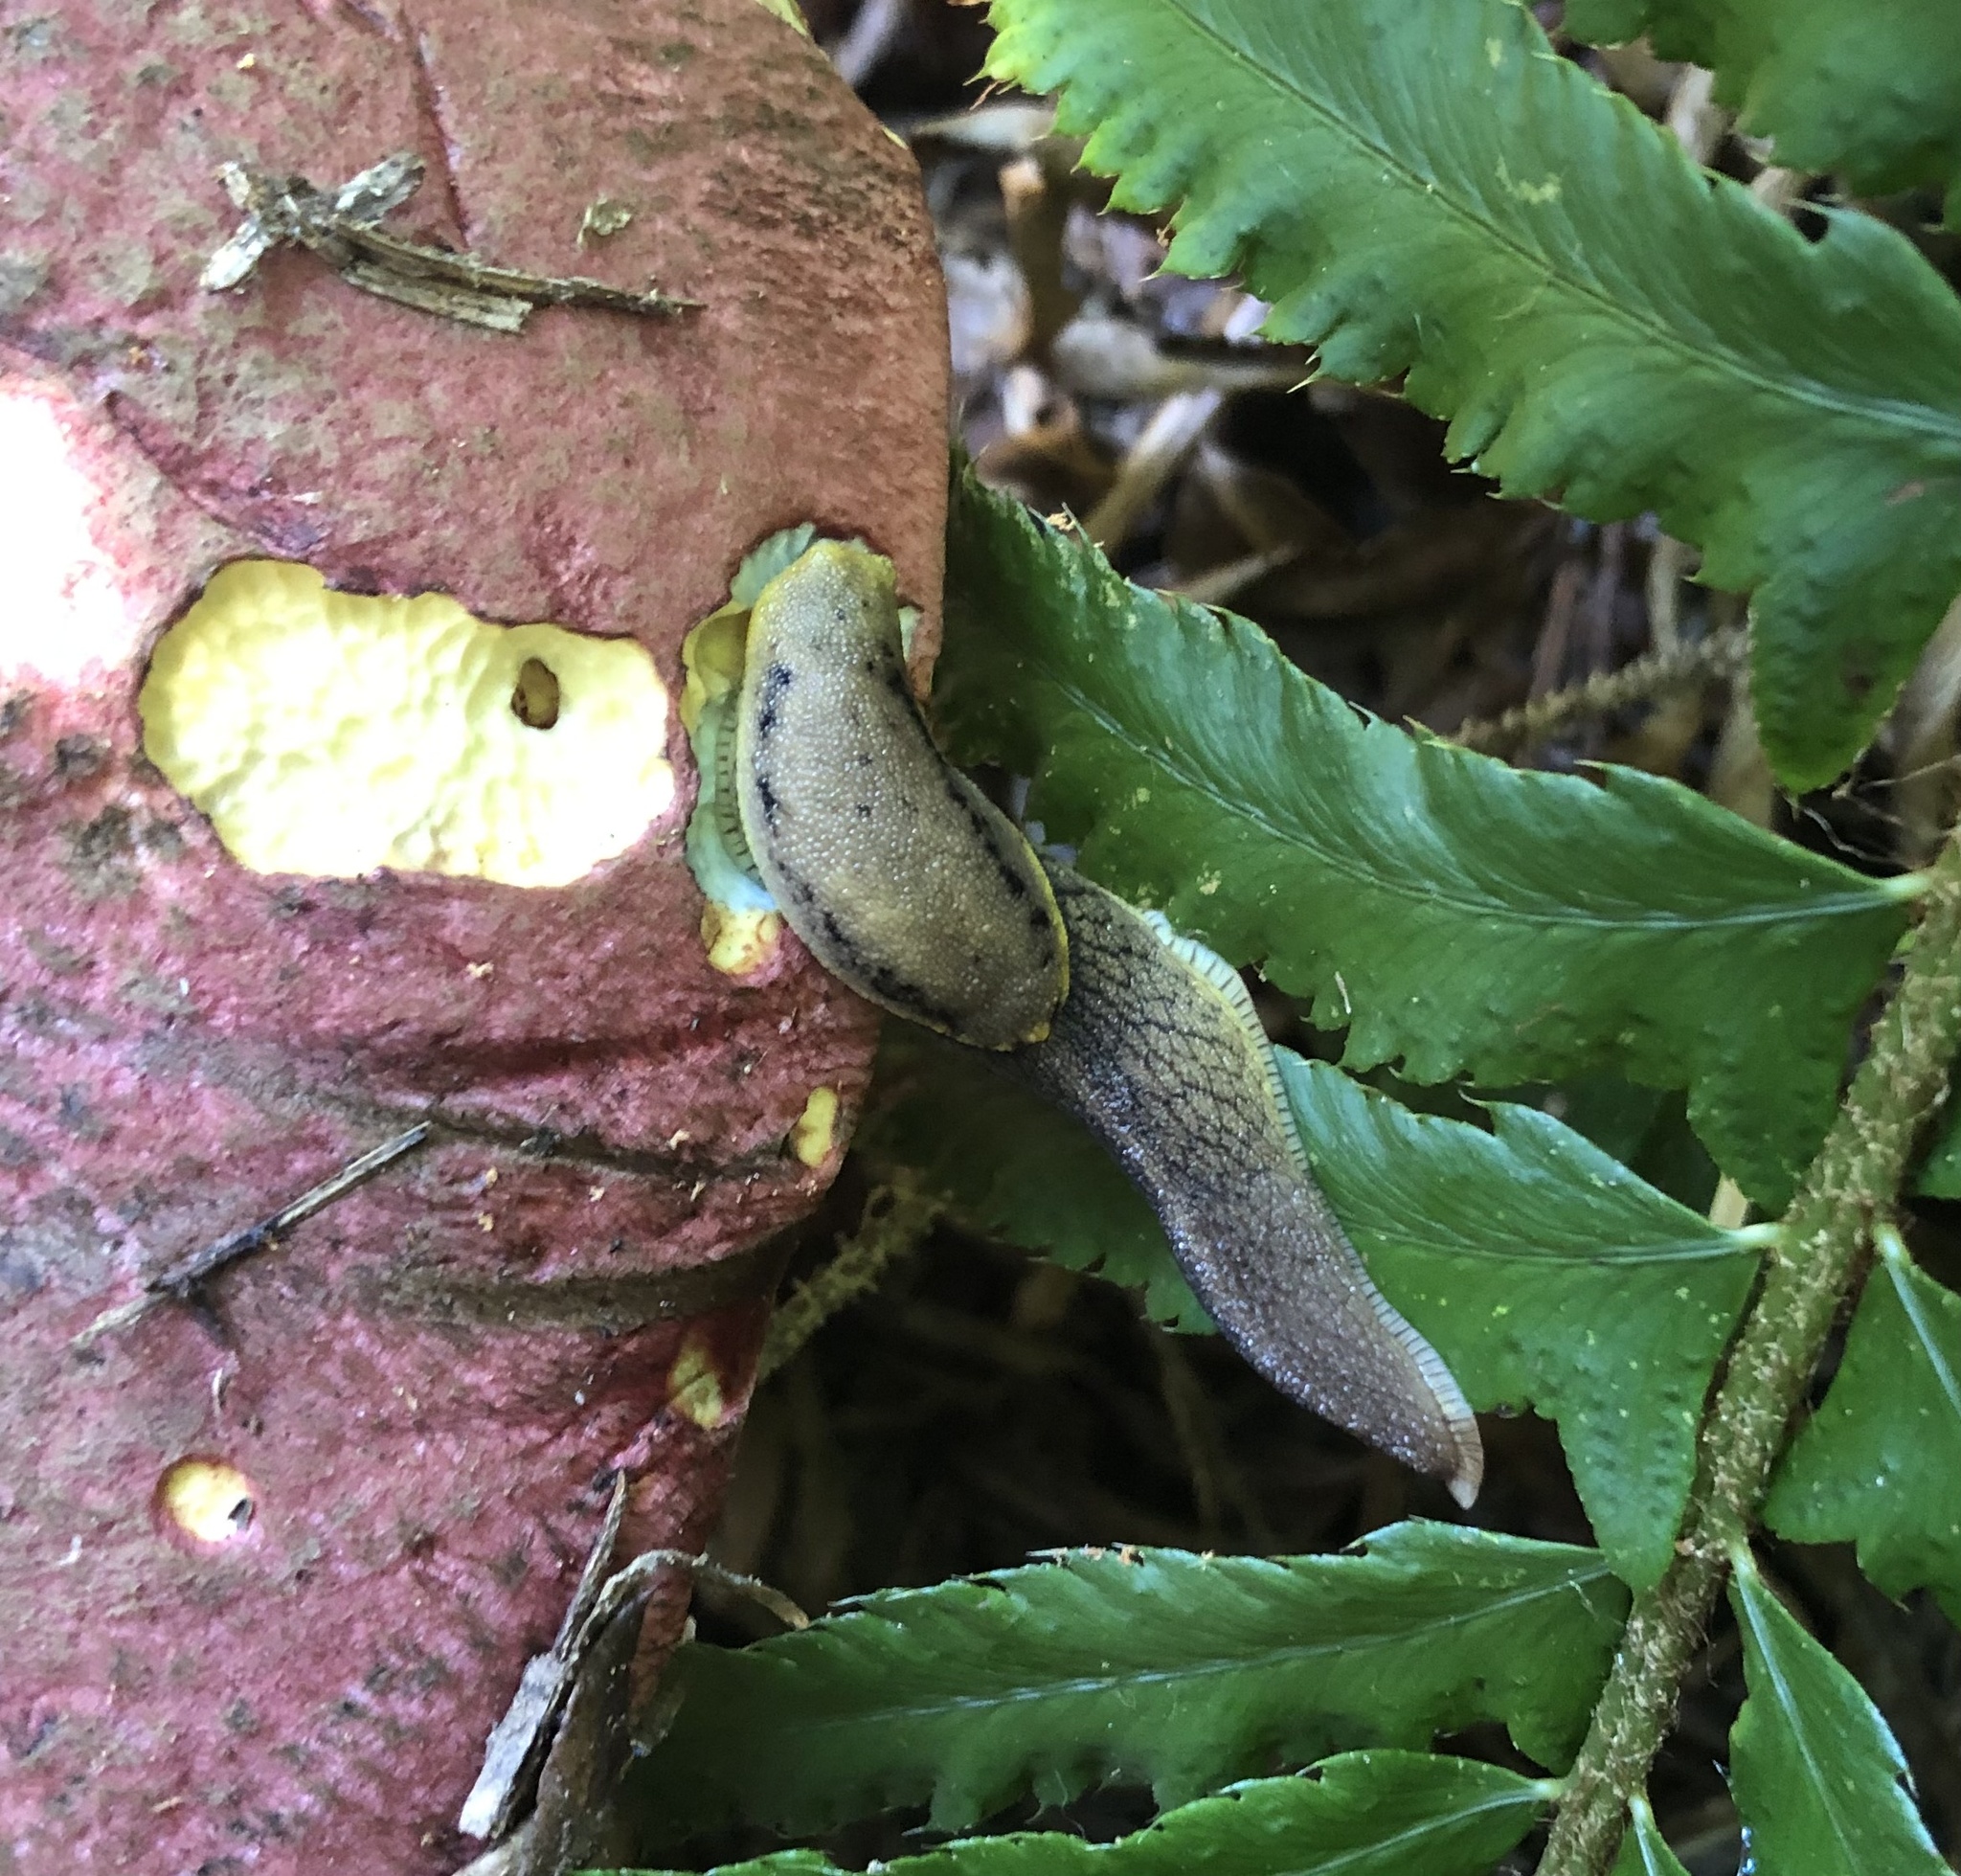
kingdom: Animalia
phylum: Mollusca
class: Gastropoda
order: Stylommatophora
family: Ariolimacidae
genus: Prophysaon
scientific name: Prophysaon foliolatum
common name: Yellow-bordered taildropper
